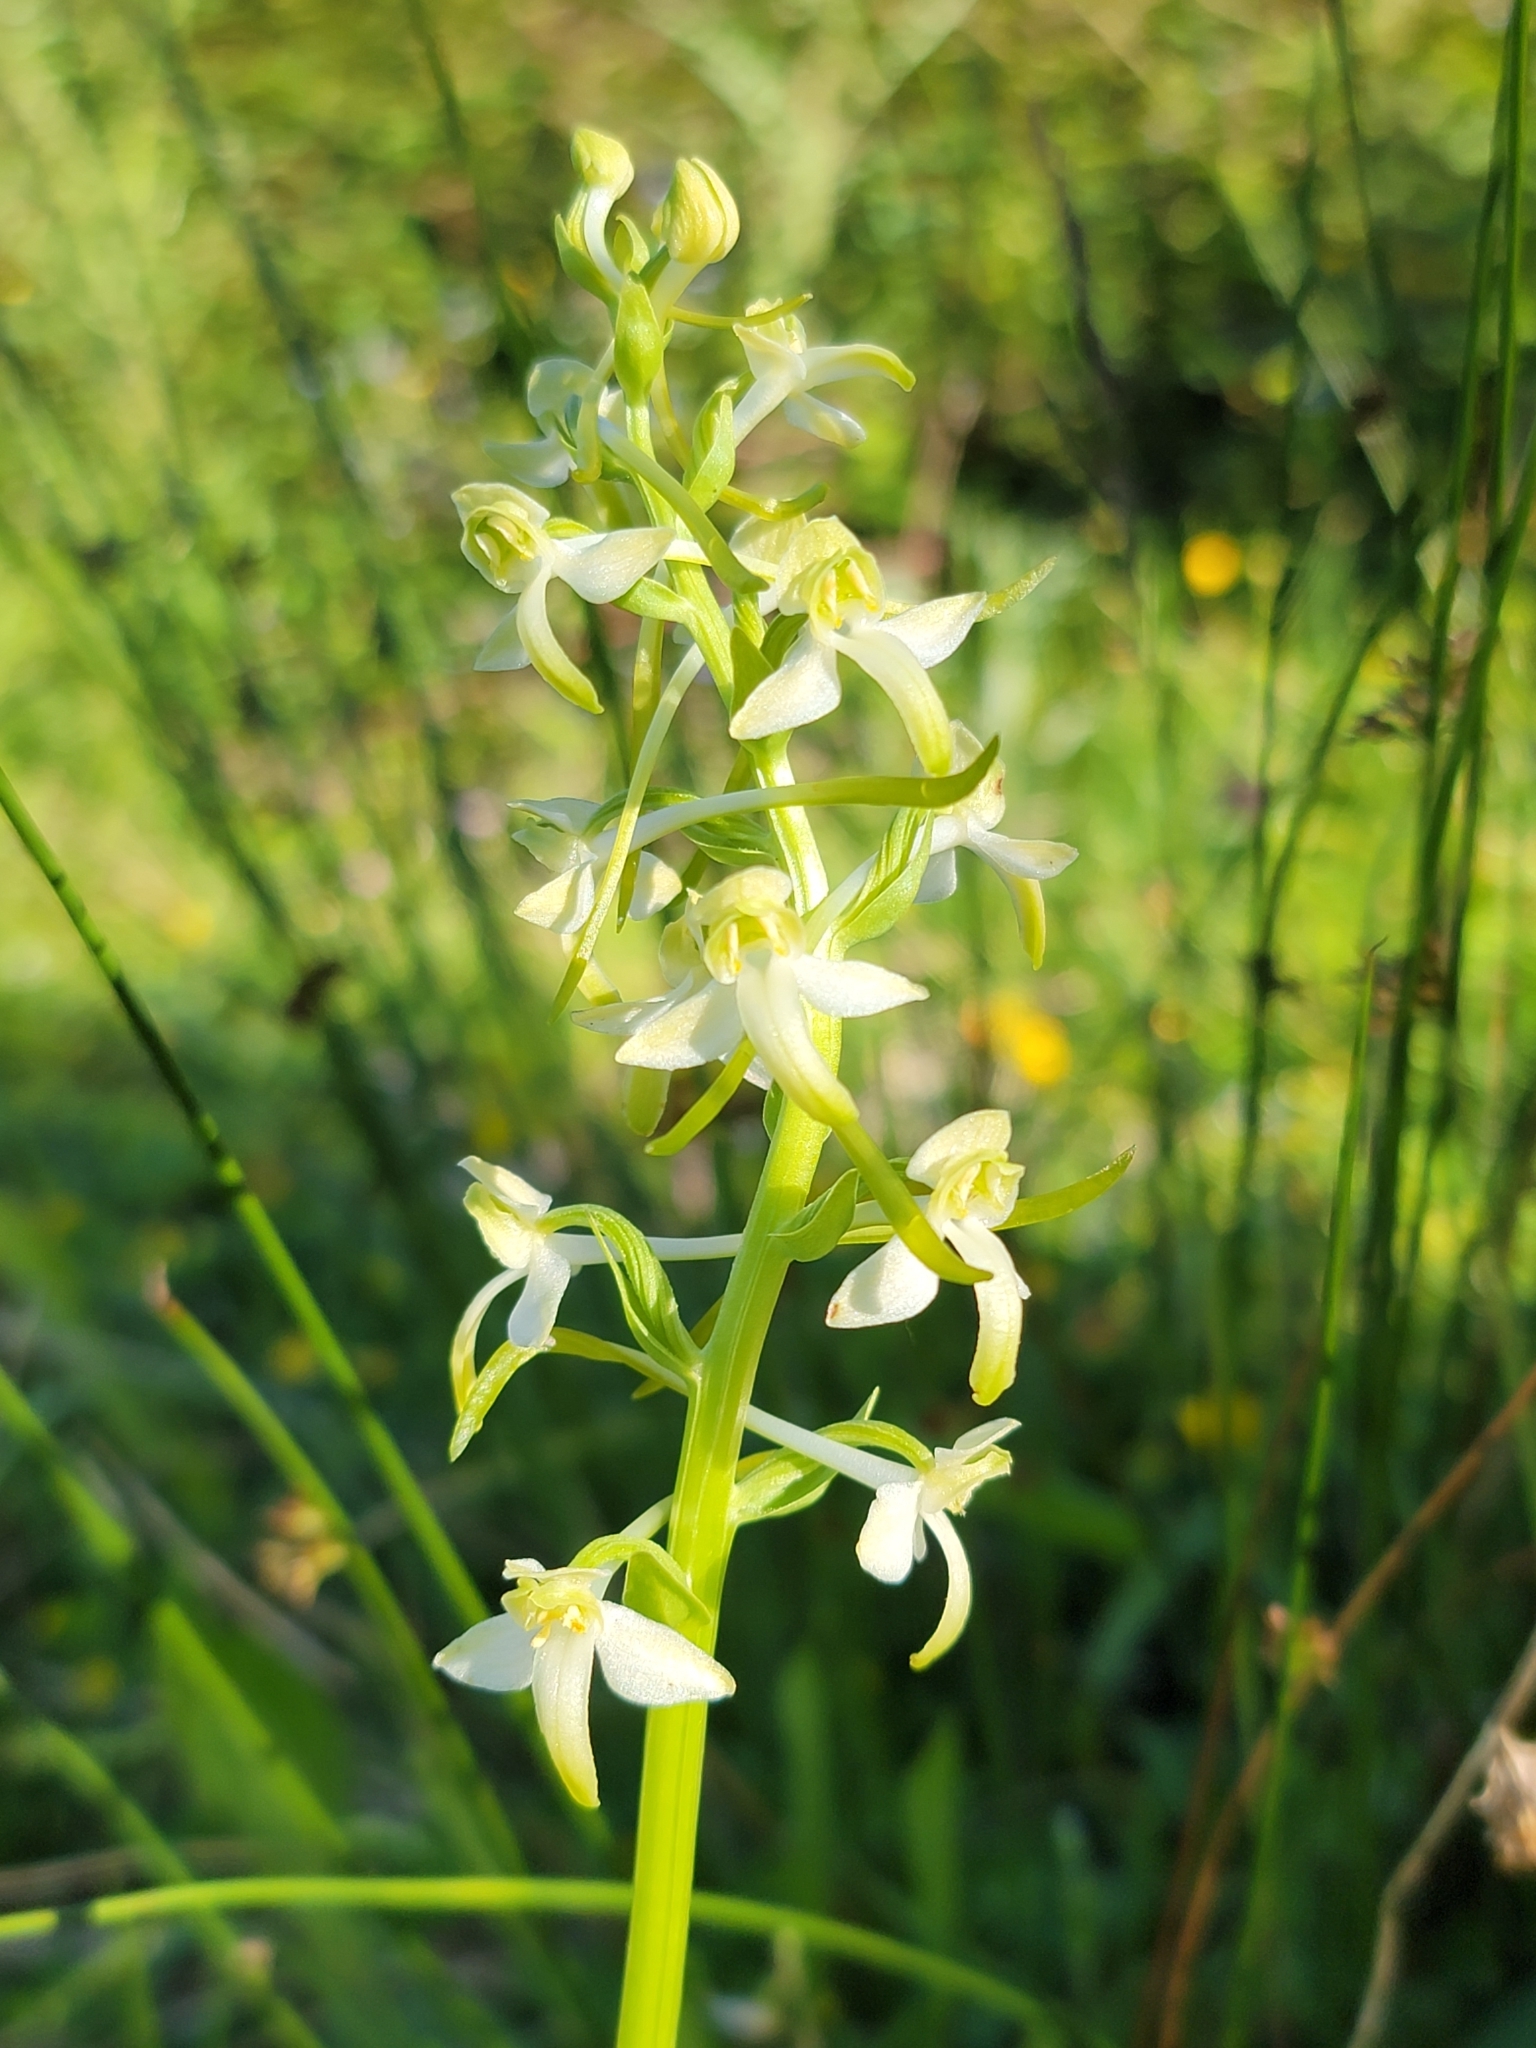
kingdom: Plantae
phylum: Tracheophyta
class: Liliopsida
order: Asparagales
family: Orchidaceae
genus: Platanthera
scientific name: Platanthera chlorantha
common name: Greater butterfly-orchid
